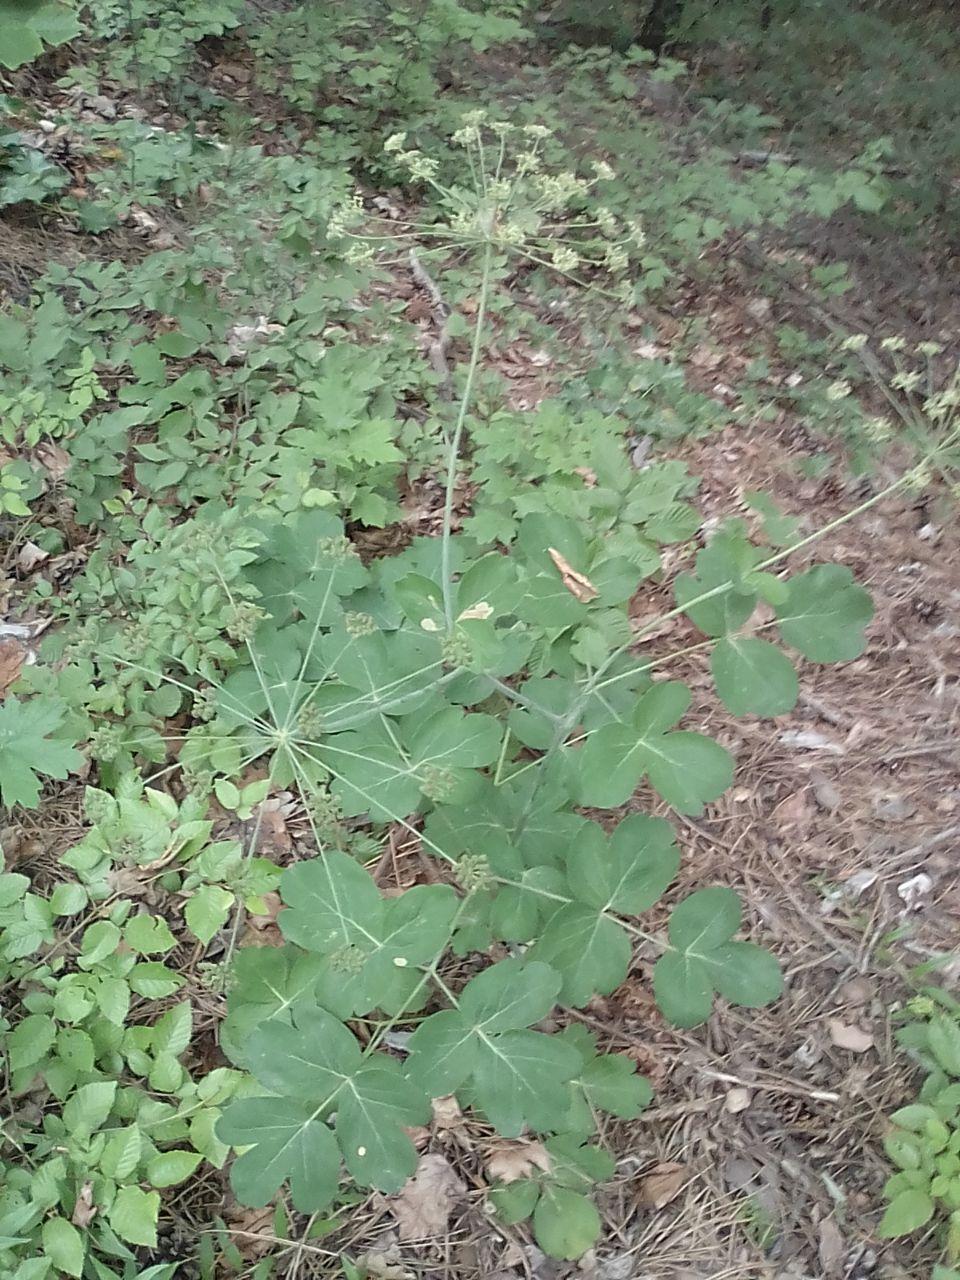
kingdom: Plantae
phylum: Tracheophyta
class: Magnoliopsida
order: Apiales
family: Apiaceae
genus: Laser
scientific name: Laser trilobum
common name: Laser
